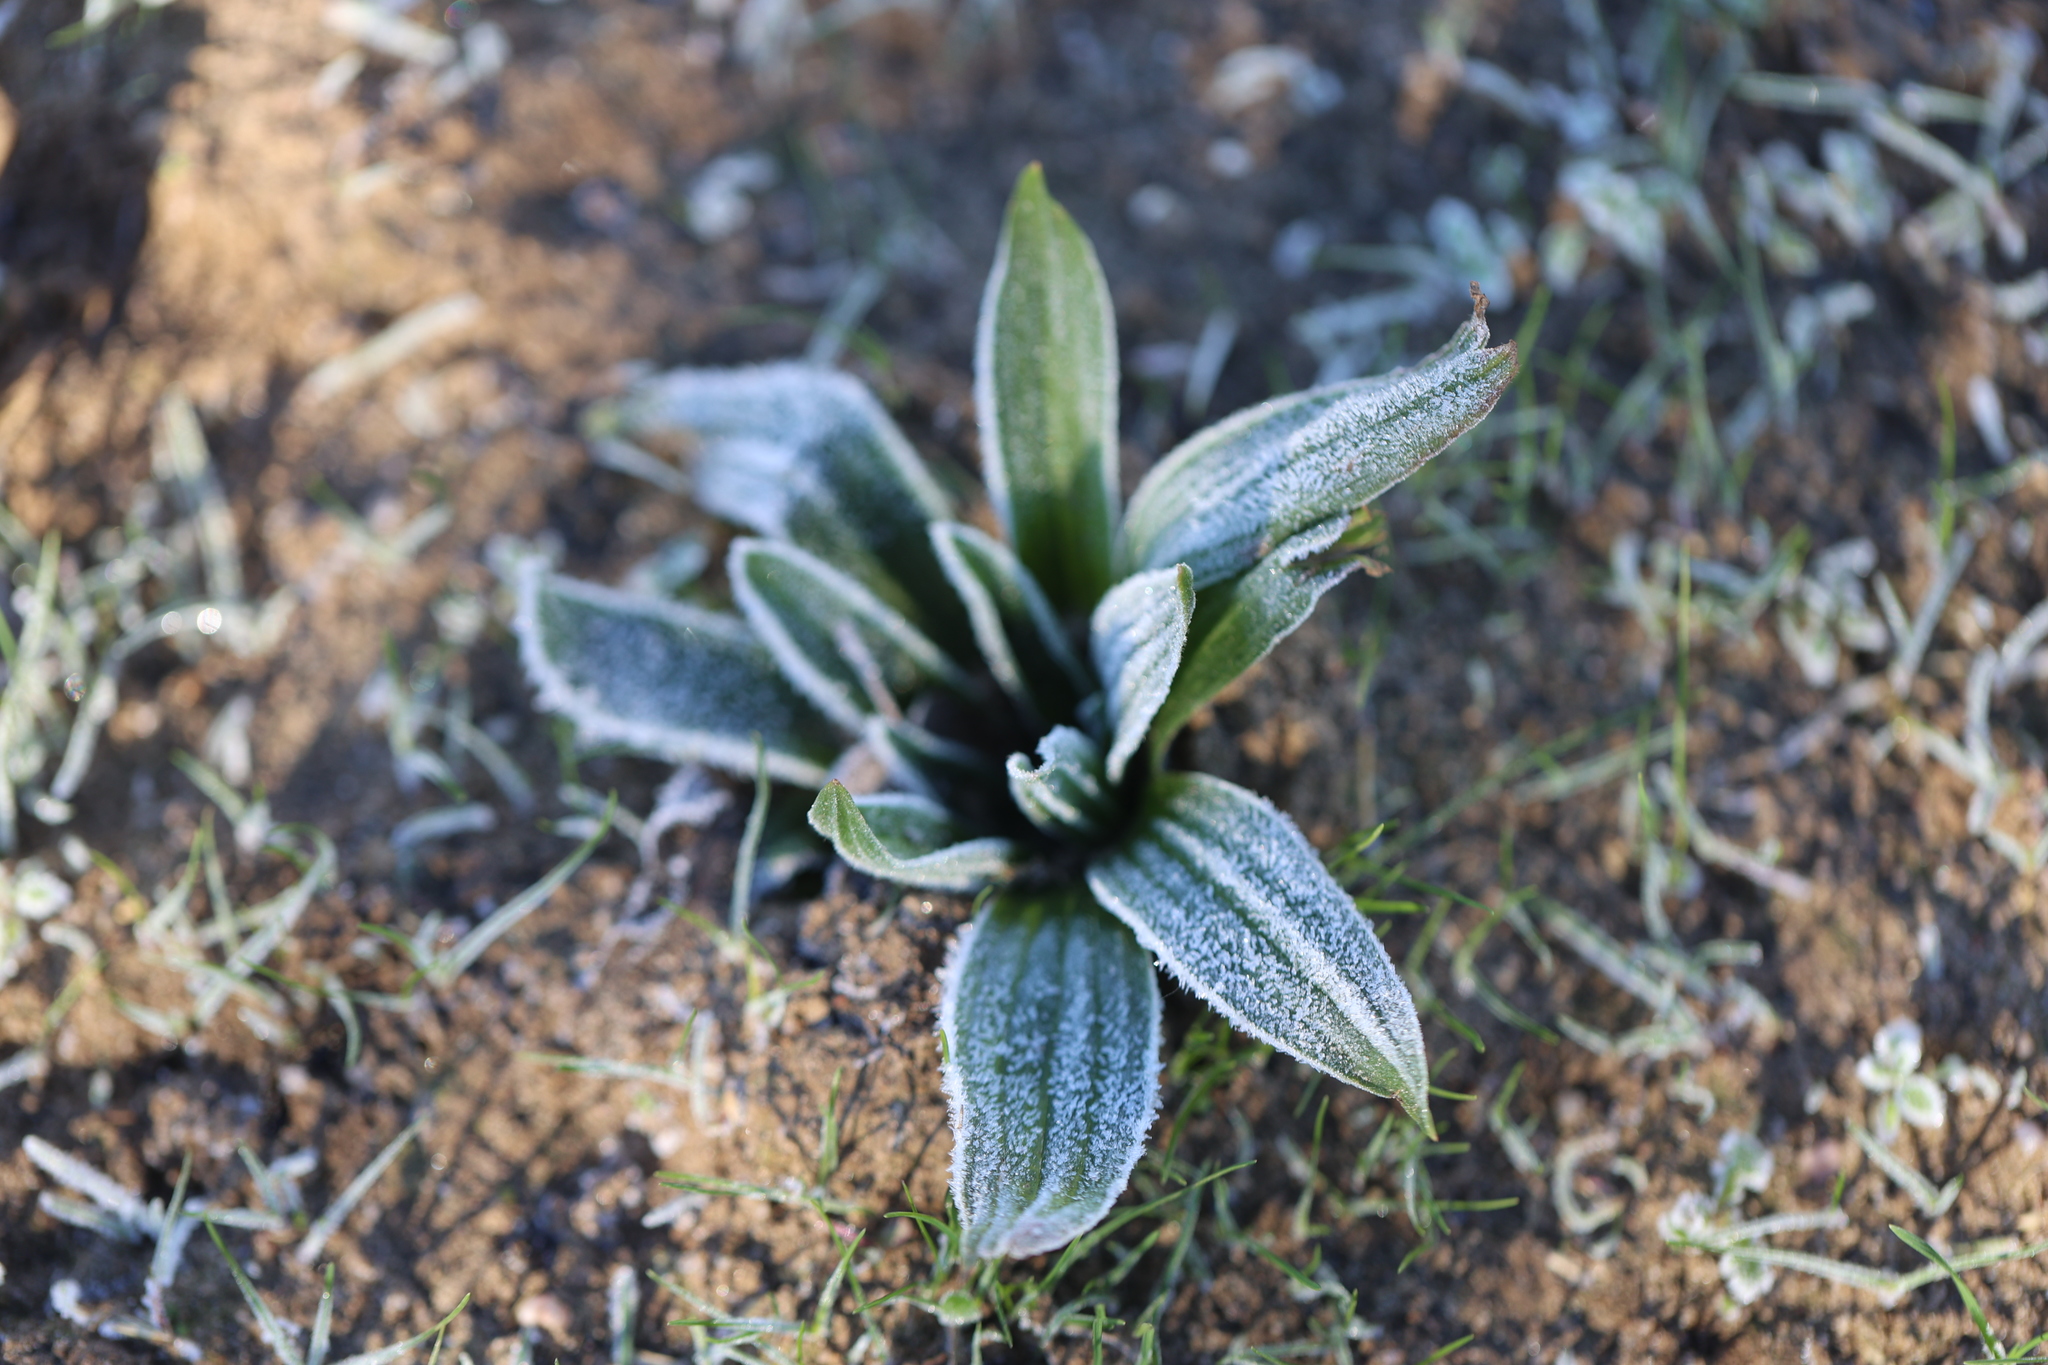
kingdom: Plantae
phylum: Tracheophyta
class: Magnoliopsida
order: Lamiales
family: Plantaginaceae
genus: Plantago
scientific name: Plantago lanceolata
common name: Ribwort plantain
